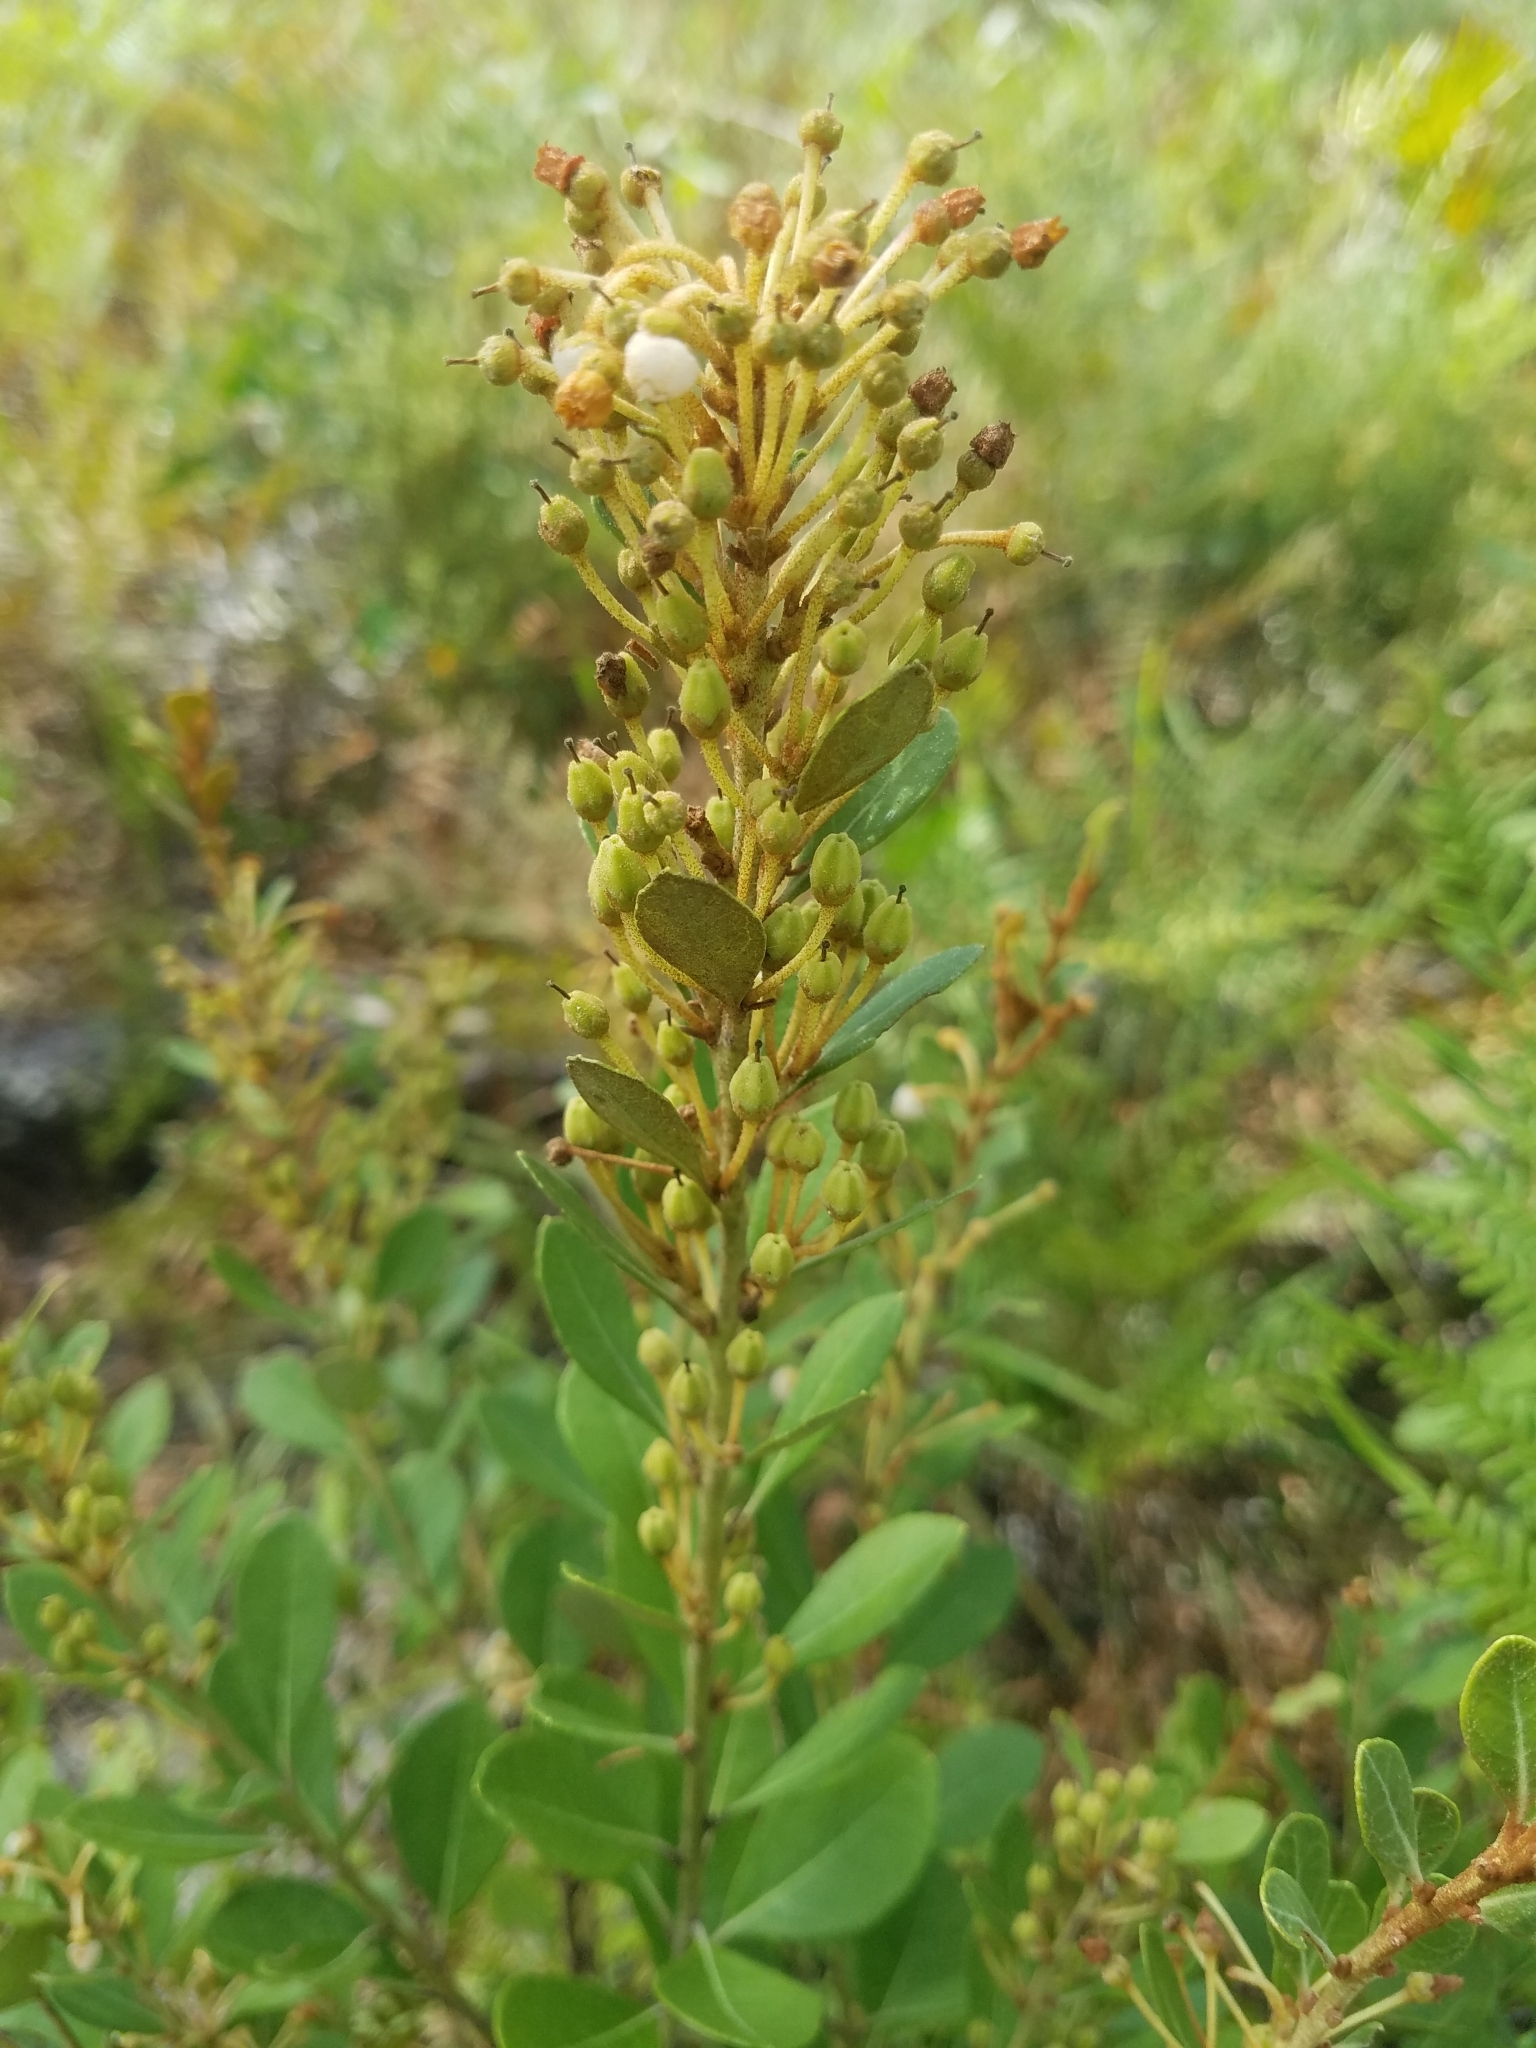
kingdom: Plantae
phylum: Tracheophyta
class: Magnoliopsida
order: Ericales
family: Ericaceae
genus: Lyonia
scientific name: Lyonia fruticosa
